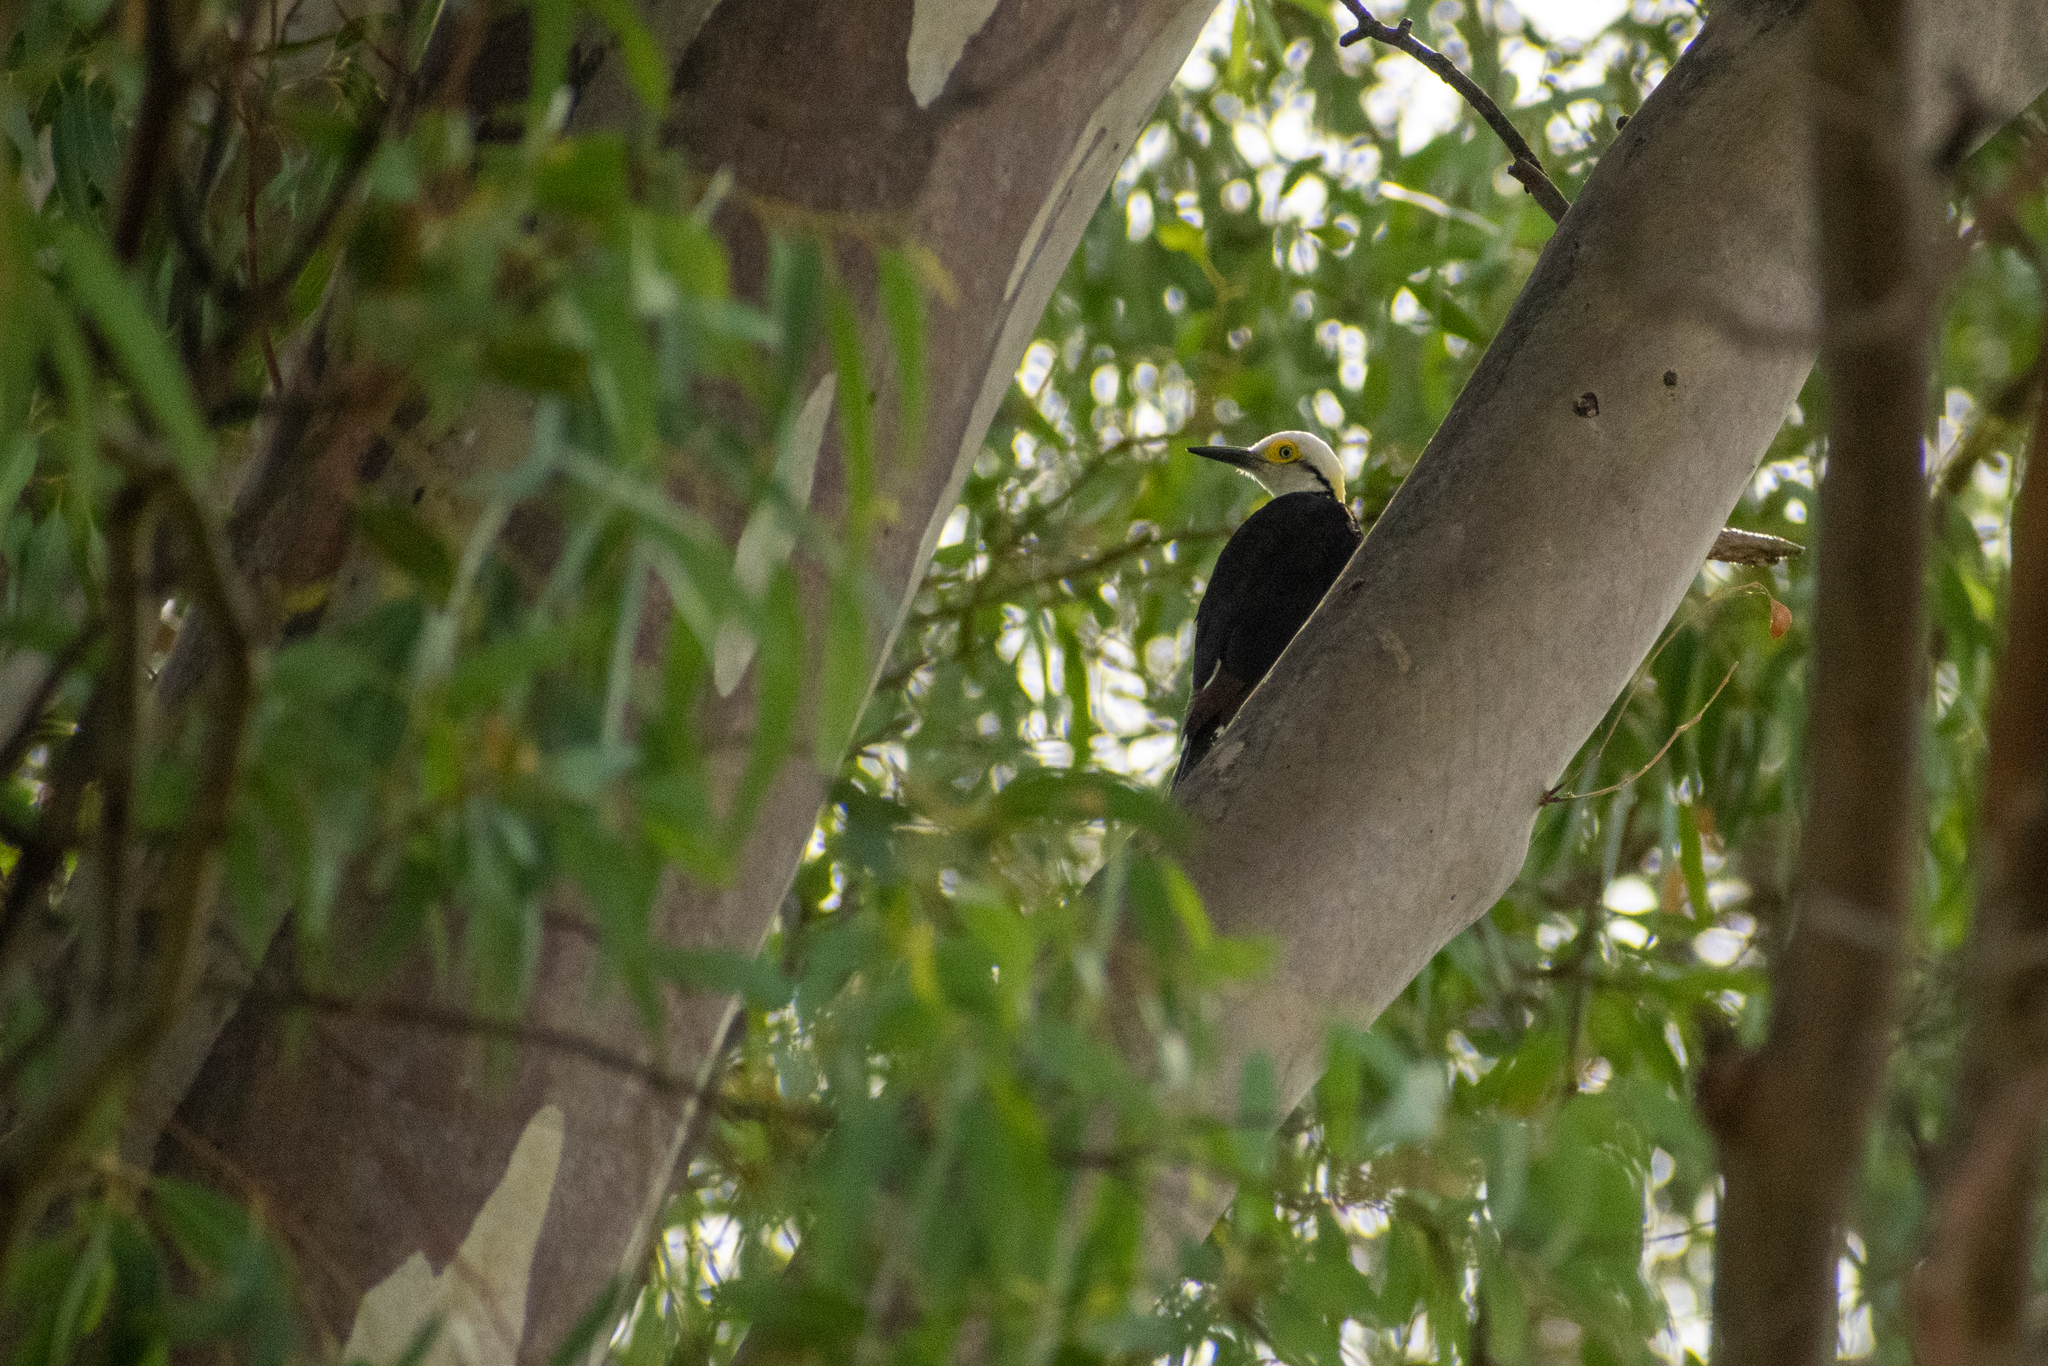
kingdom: Animalia
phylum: Chordata
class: Aves
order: Piciformes
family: Picidae
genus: Melanerpes
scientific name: Melanerpes candidus
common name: White woodpecker
